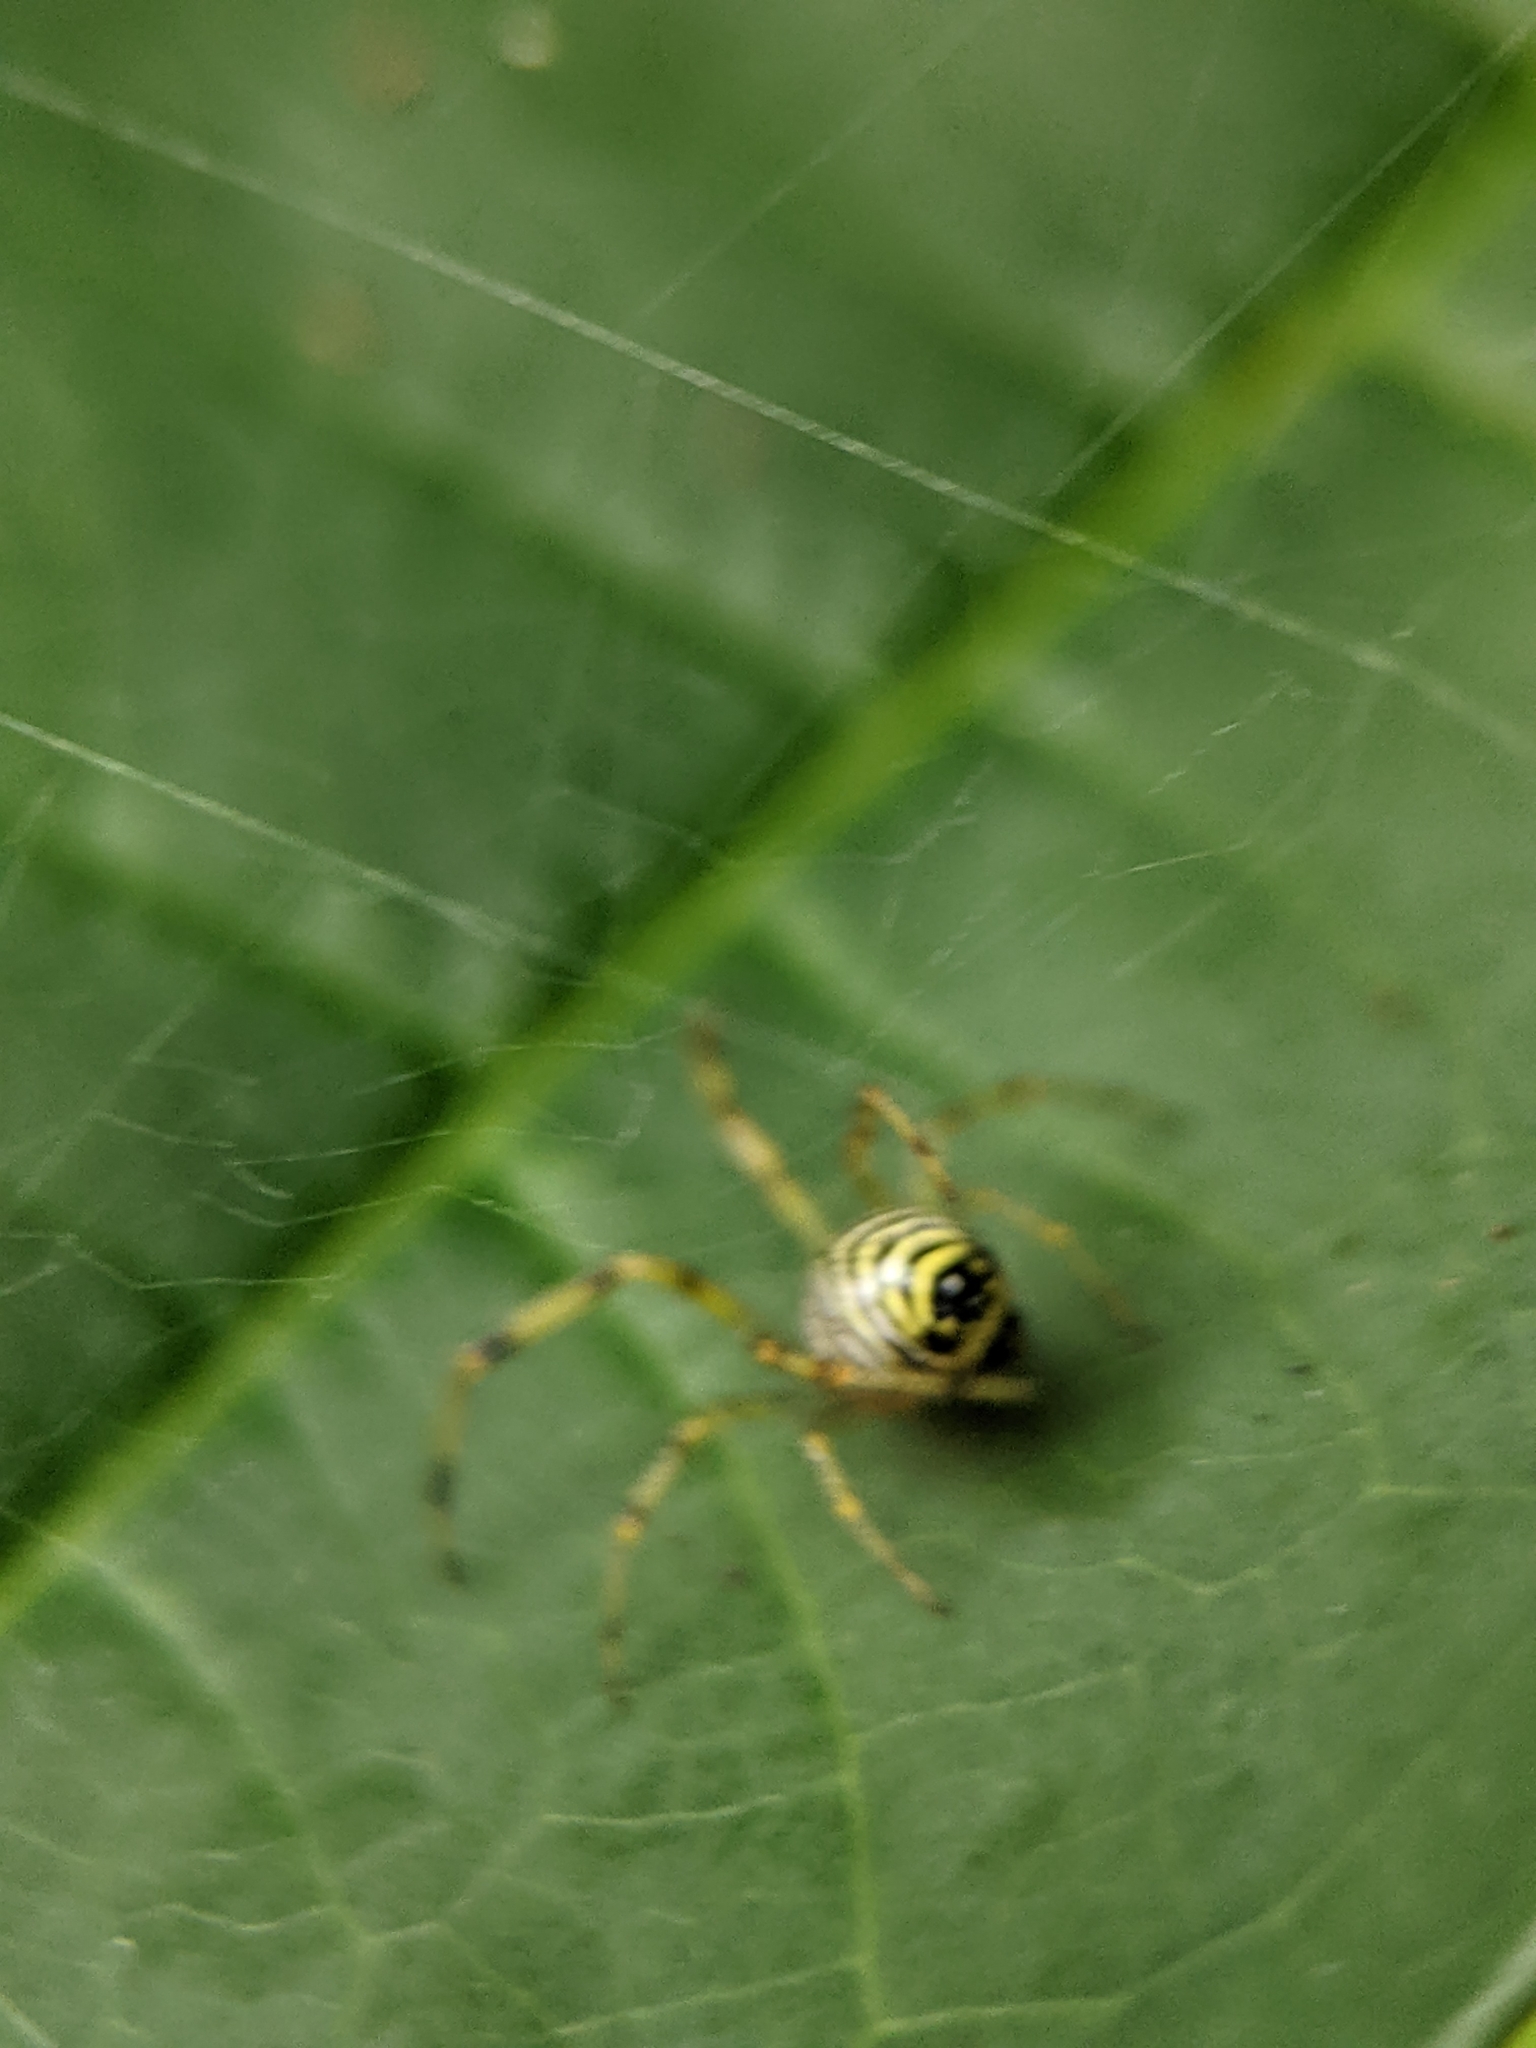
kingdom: Animalia
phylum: Arthropoda
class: Arachnida
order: Araneae
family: Theridiidae
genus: Theridion
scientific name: Theridion zonulatum
